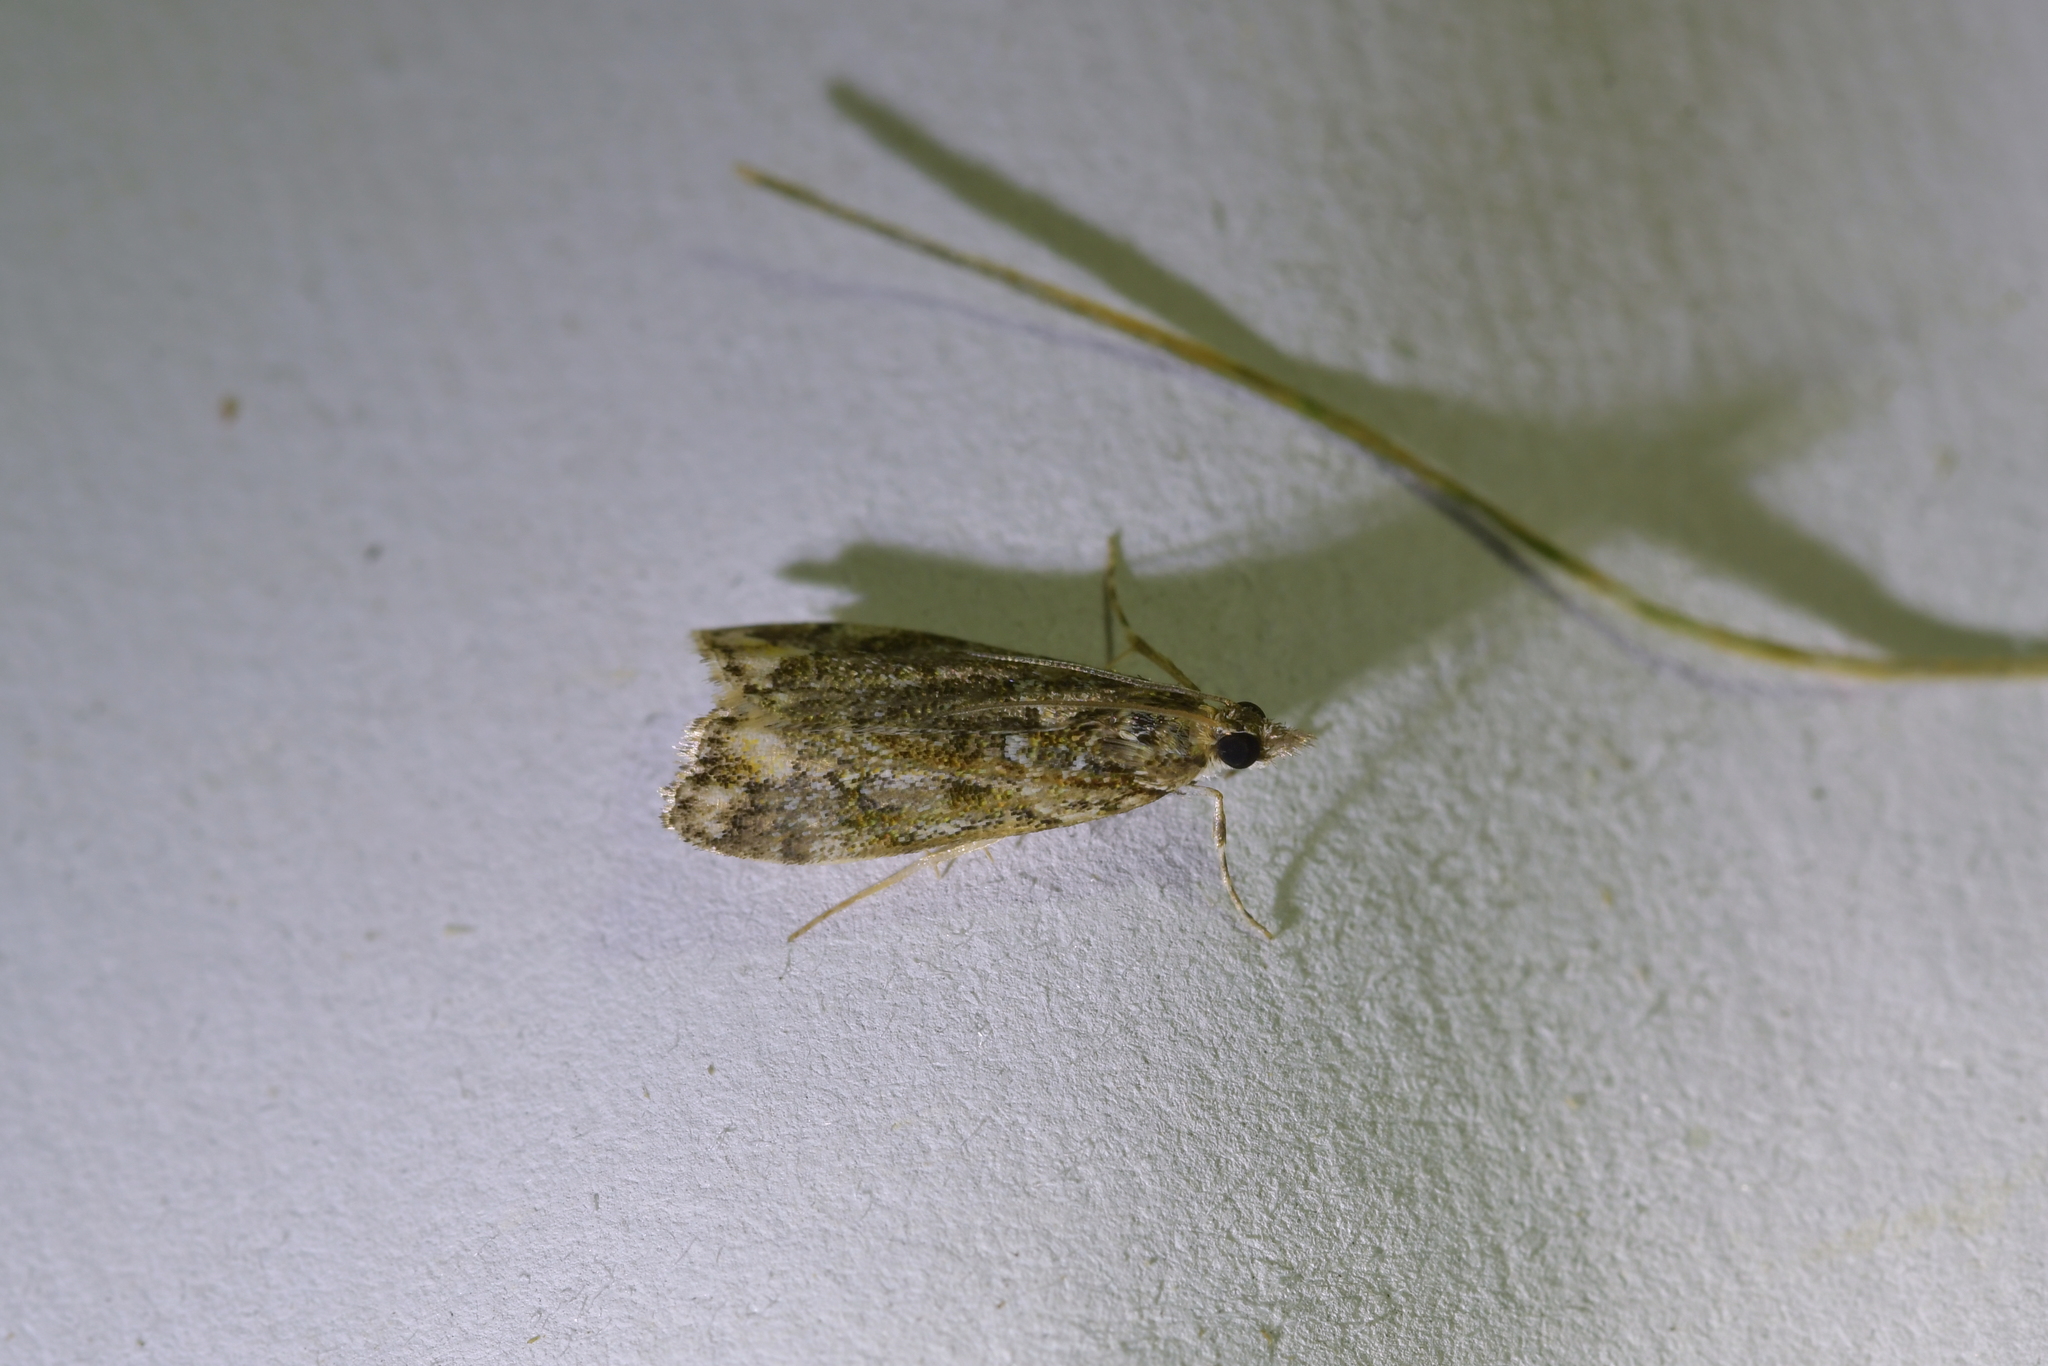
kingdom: Animalia
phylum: Arthropoda
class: Insecta
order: Lepidoptera
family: Crambidae
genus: Eudonia
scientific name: Eudonia minualis
